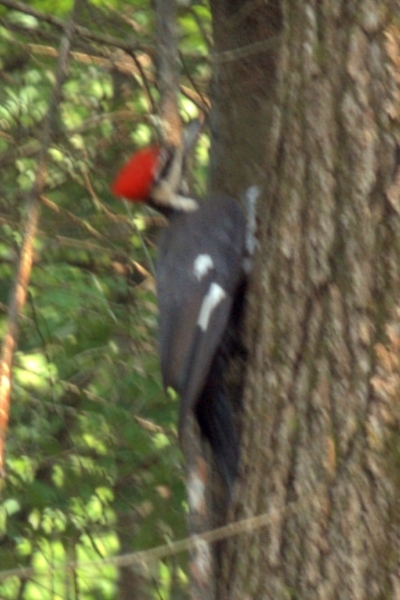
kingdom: Animalia
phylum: Chordata
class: Aves
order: Piciformes
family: Picidae
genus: Dryocopus
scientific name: Dryocopus pileatus
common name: Pileated woodpecker
